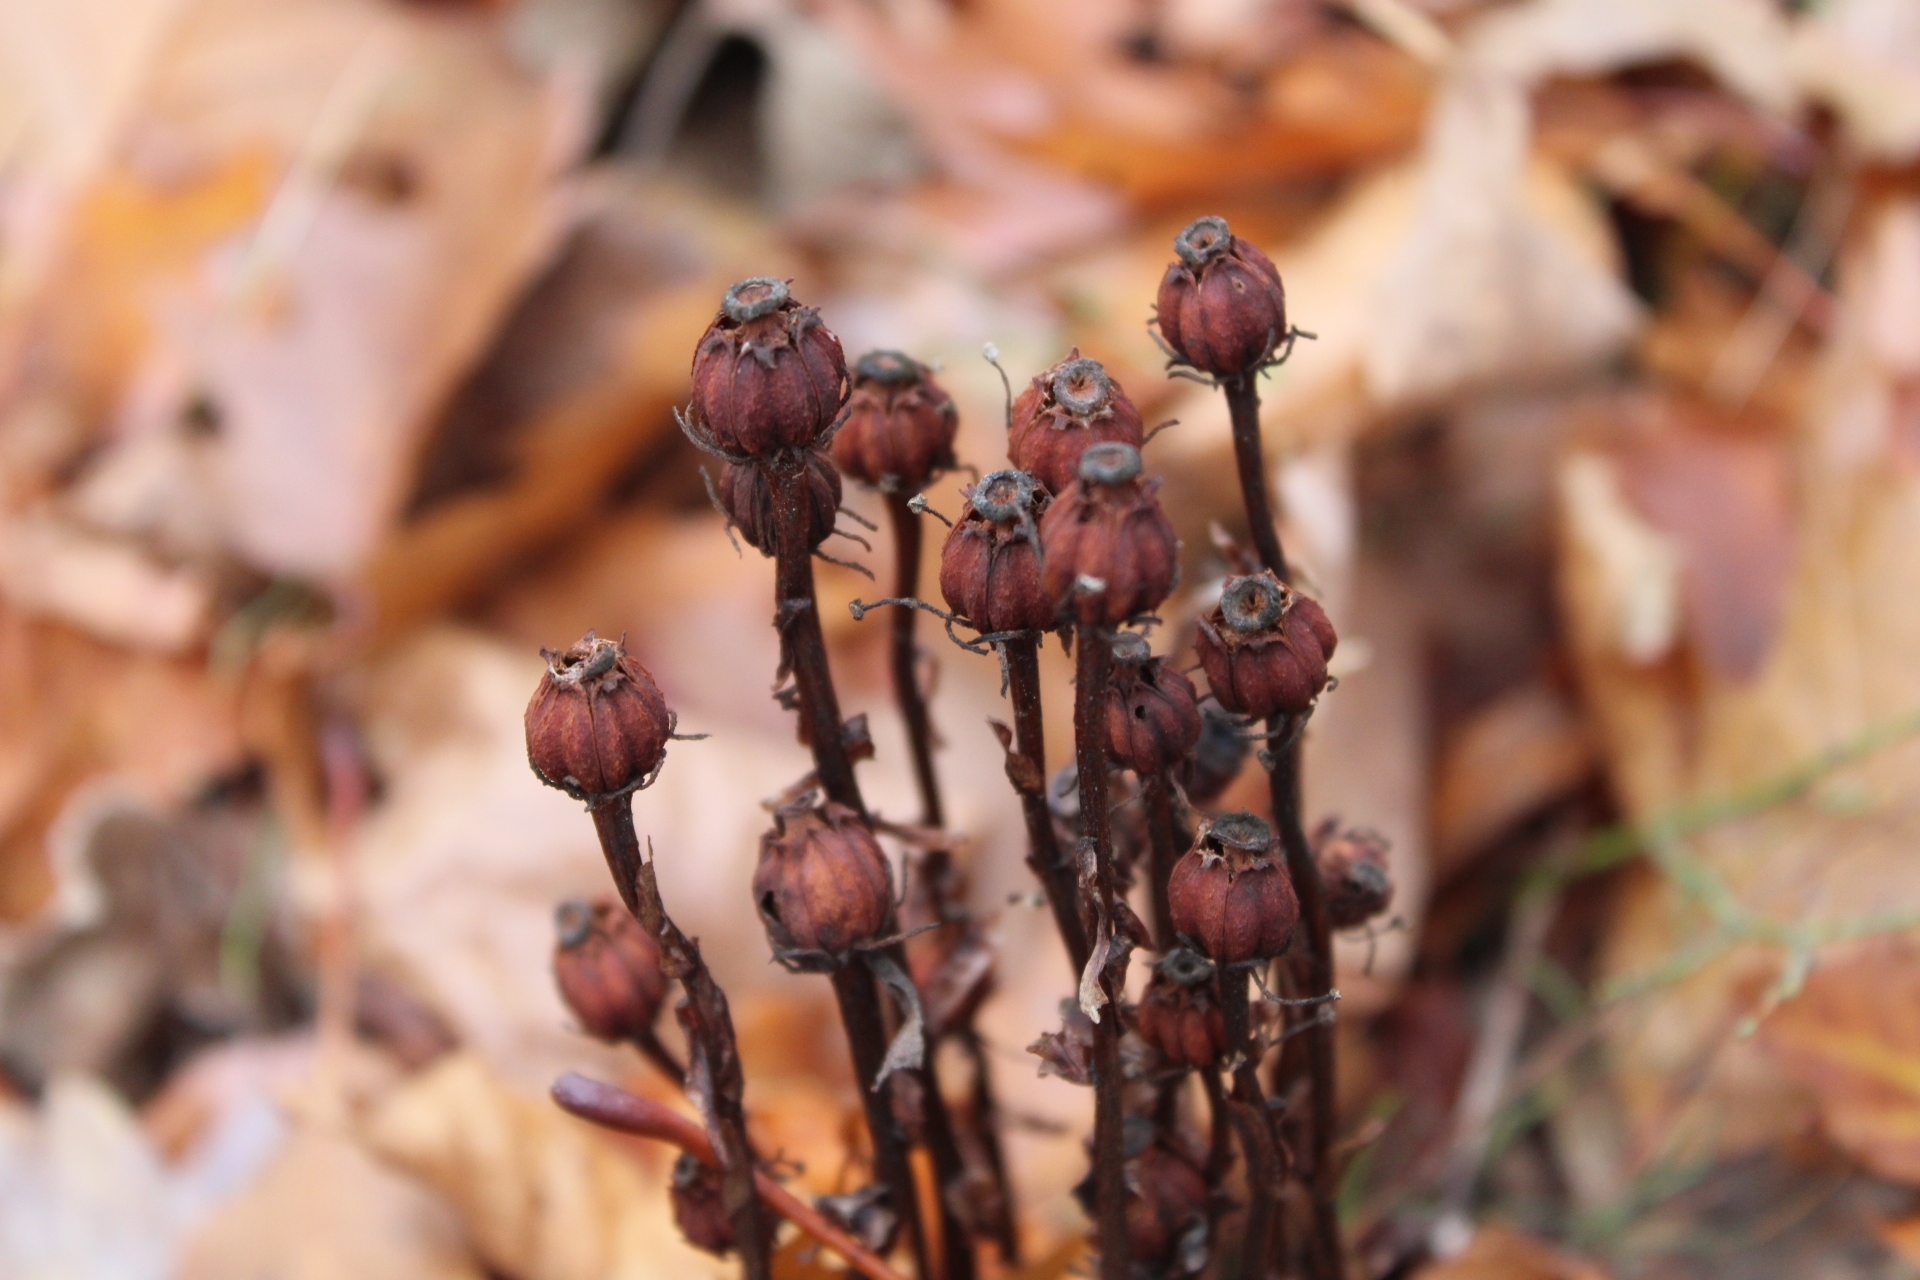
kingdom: Plantae
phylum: Tracheophyta
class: Magnoliopsida
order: Ericales
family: Ericaceae
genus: Monotropa
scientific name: Monotropa uniflora
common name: Convulsion root
